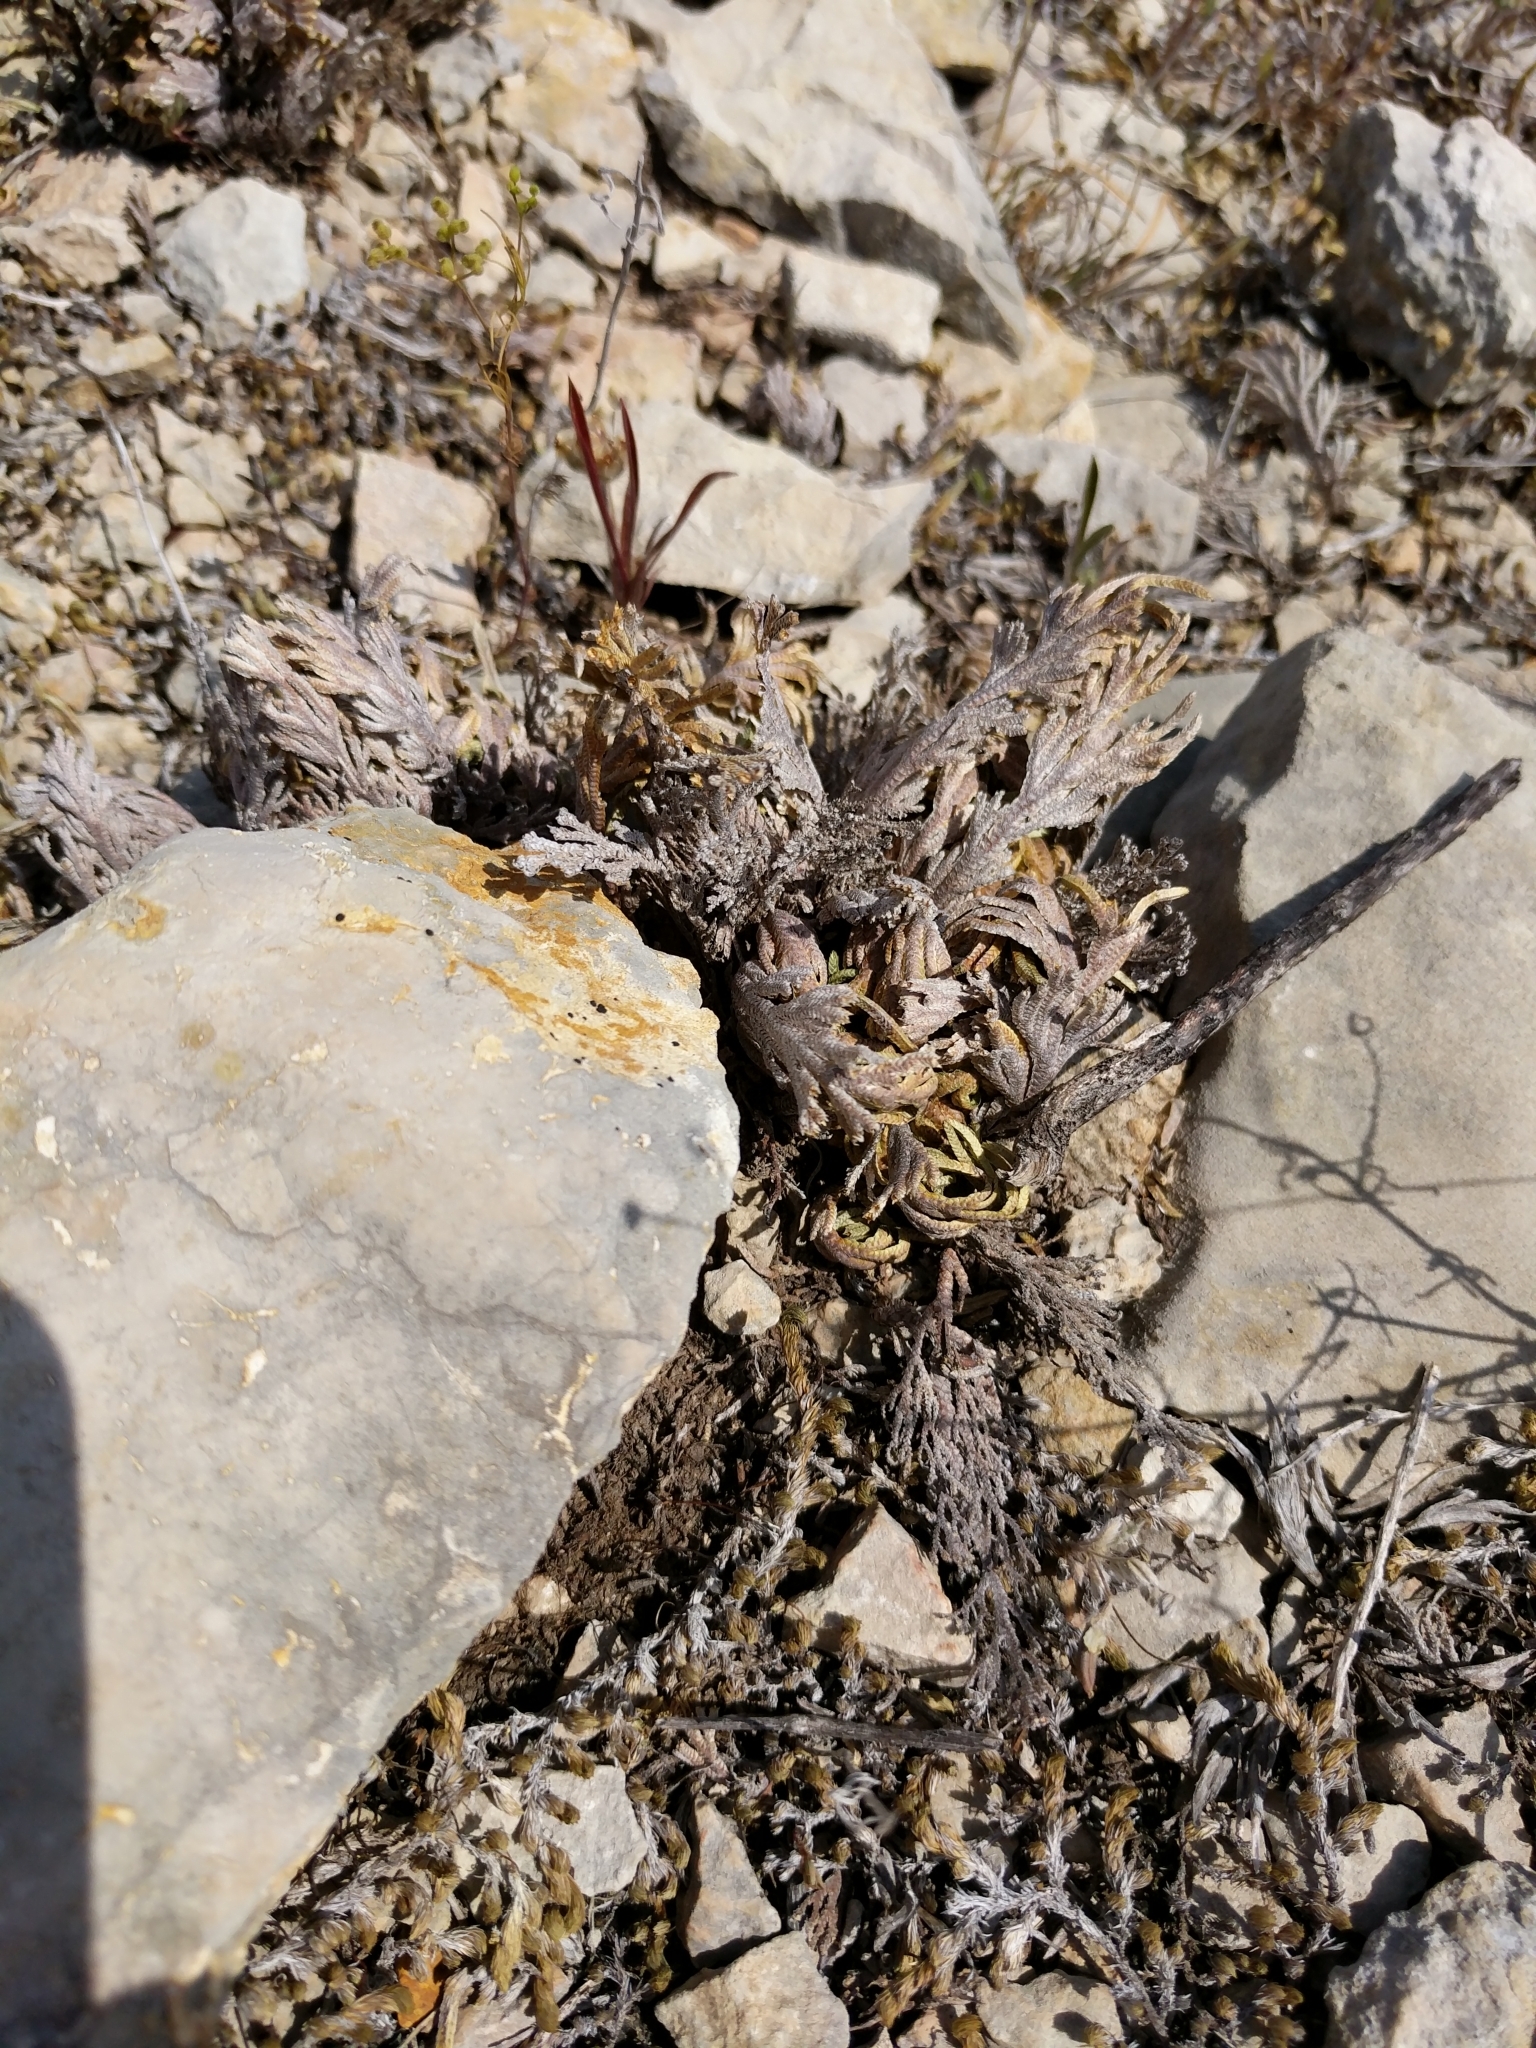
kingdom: Plantae
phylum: Tracheophyta
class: Lycopodiopsida
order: Selaginellales
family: Selaginellaceae
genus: Selaginella
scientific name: Selaginella lepidophylla
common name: Rose-of-jericho
